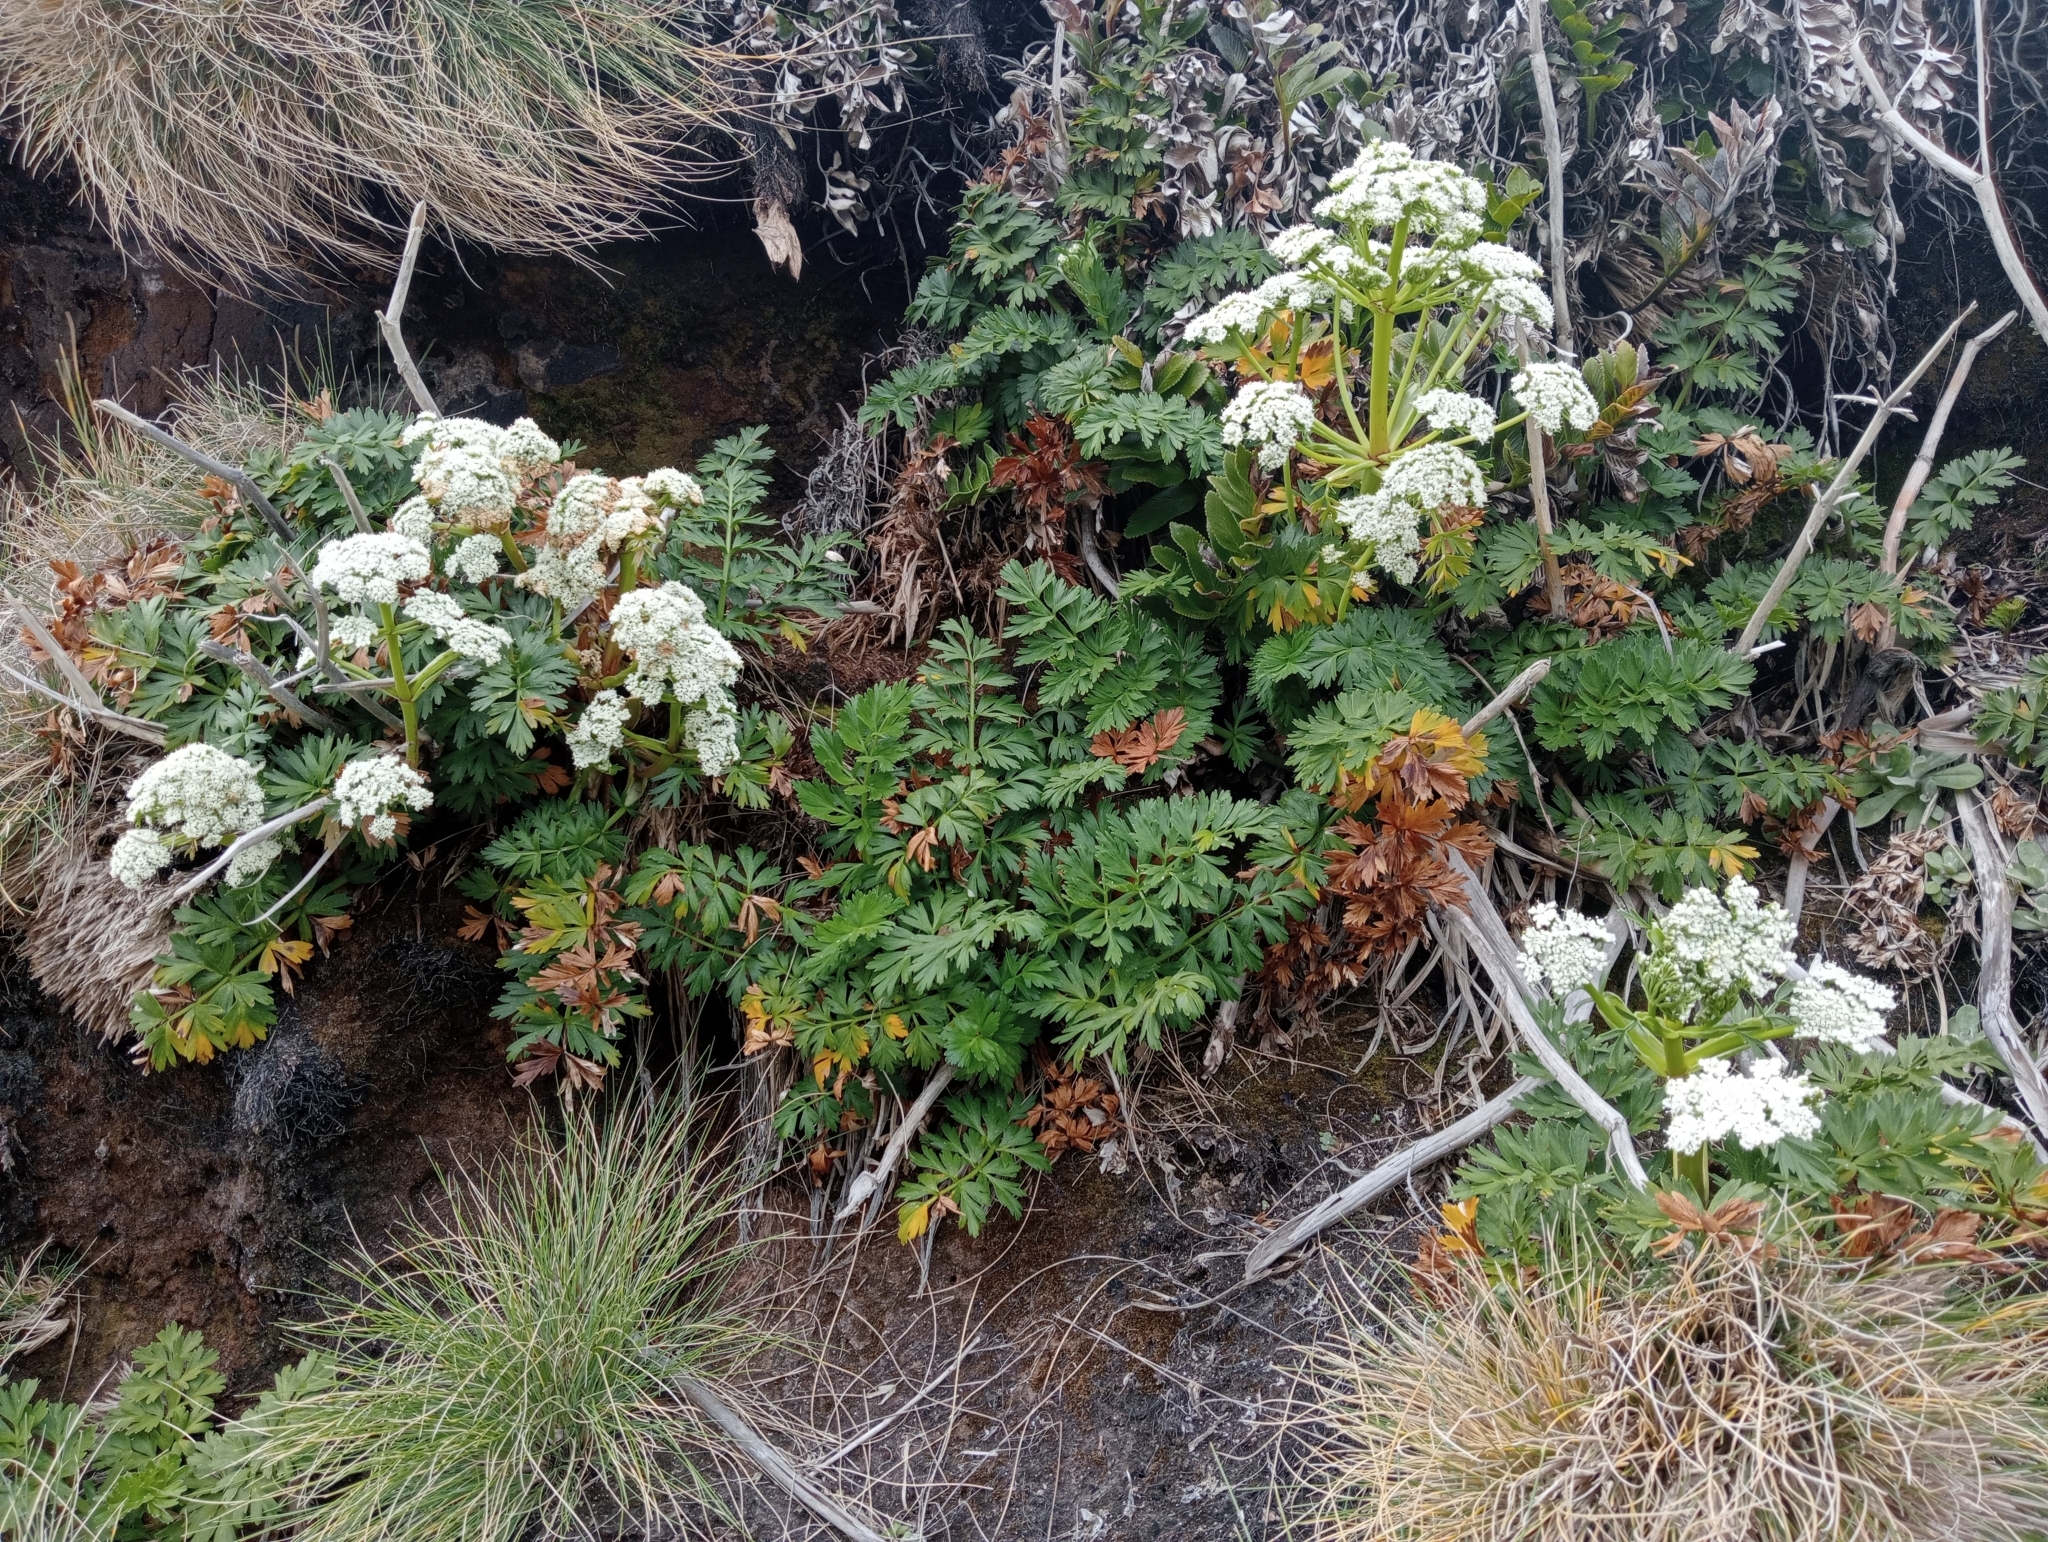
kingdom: Plantae
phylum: Tracheophyta
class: Magnoliopsida
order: Apiales
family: Apiaceae
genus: Anisotome
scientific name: Anisotome lyallii
